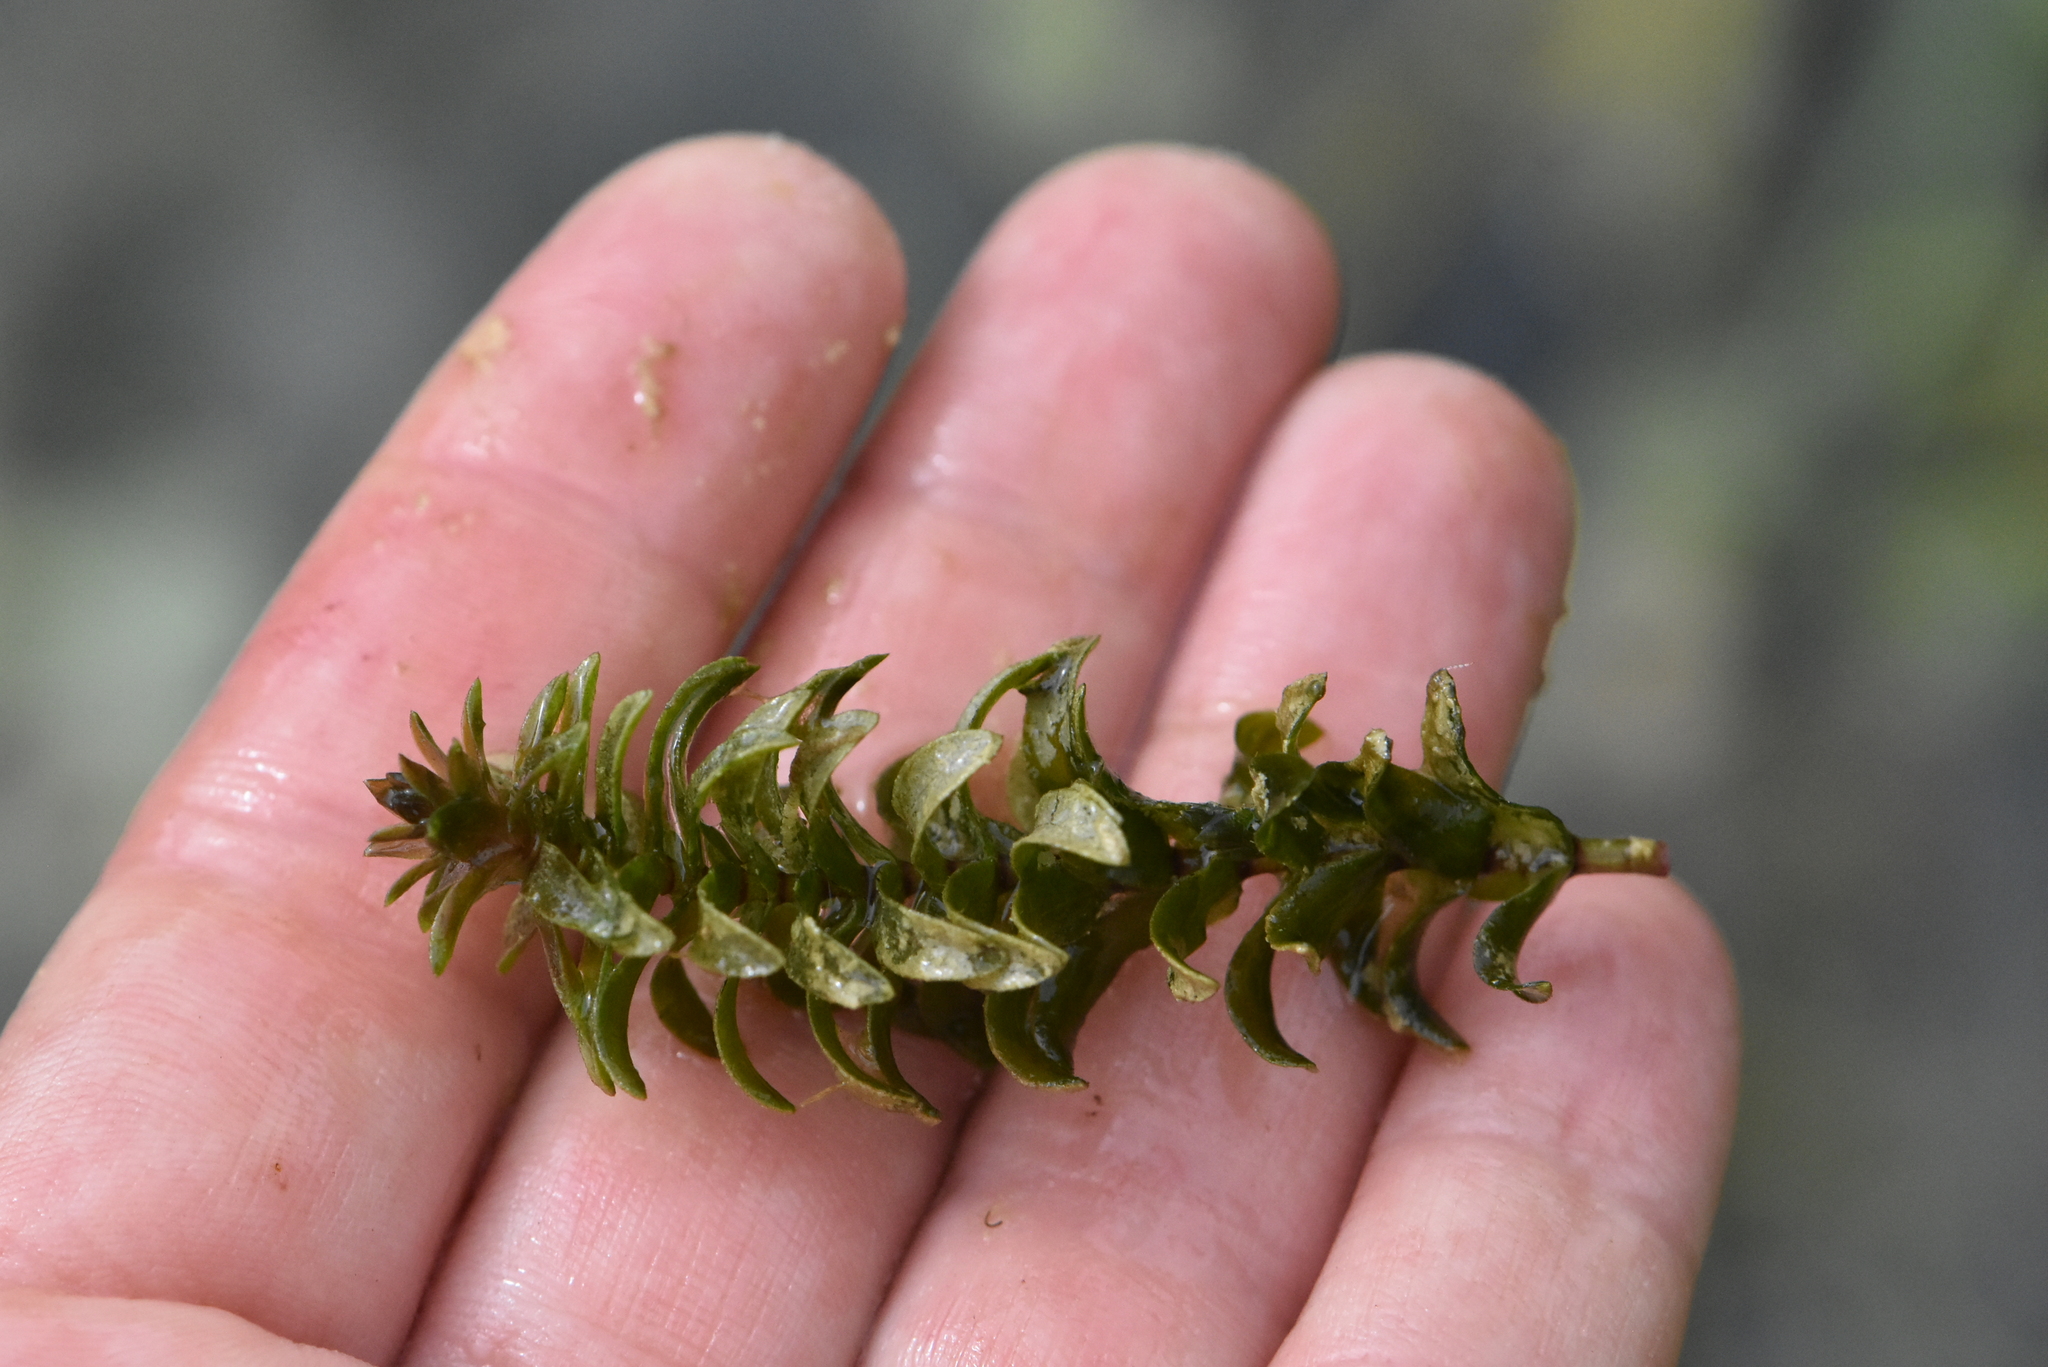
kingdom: Plantae
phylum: Tracheophyta
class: Liliopsida
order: Alismatales
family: Hydrocharitaceae
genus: Elodea
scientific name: Elodea canadensis
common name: Canadian waterweed
